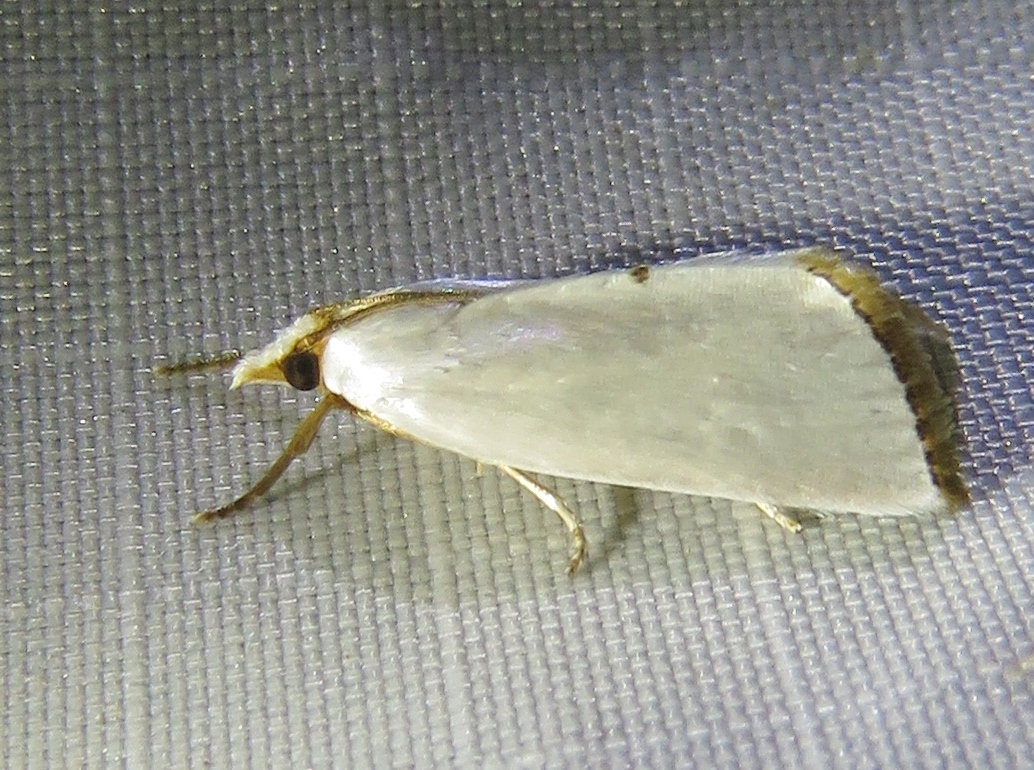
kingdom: Animalia
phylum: Arthropoda
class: Insecta
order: Lepidoptera
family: Crambidae
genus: Argyria
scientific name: Argyria nivalis
